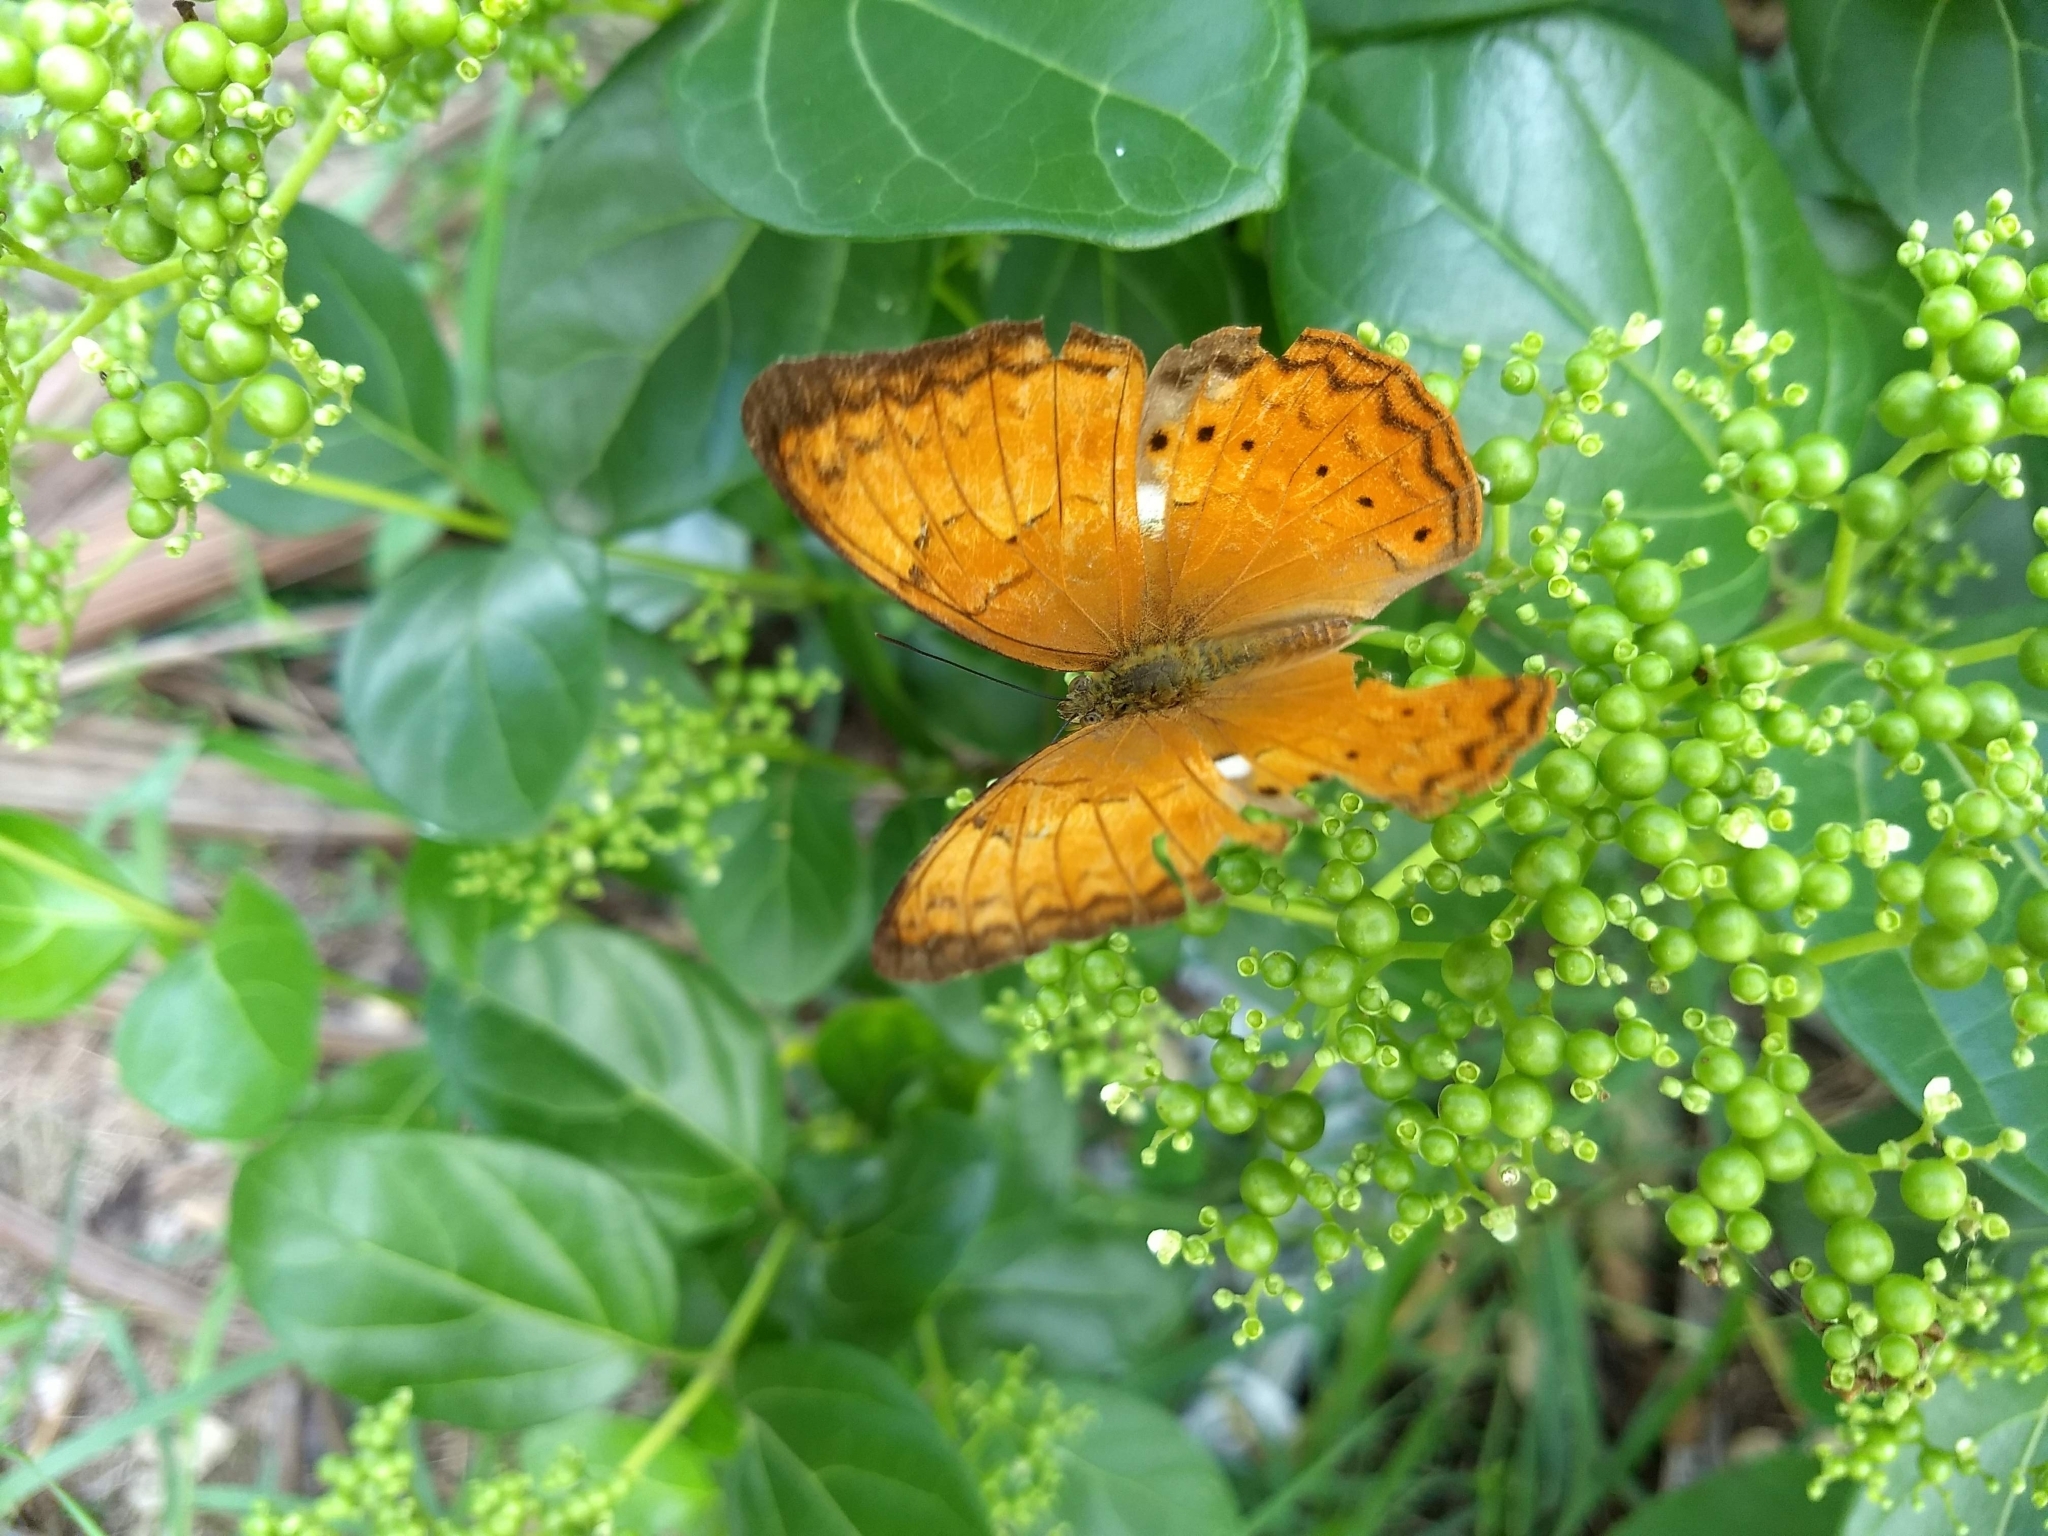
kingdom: Animalia
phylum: Arthropoda
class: Insecta
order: Lepidoptera
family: Nymphalidae
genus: Cirrochroa
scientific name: Cirrochroa thais
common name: Tamil yeoman
